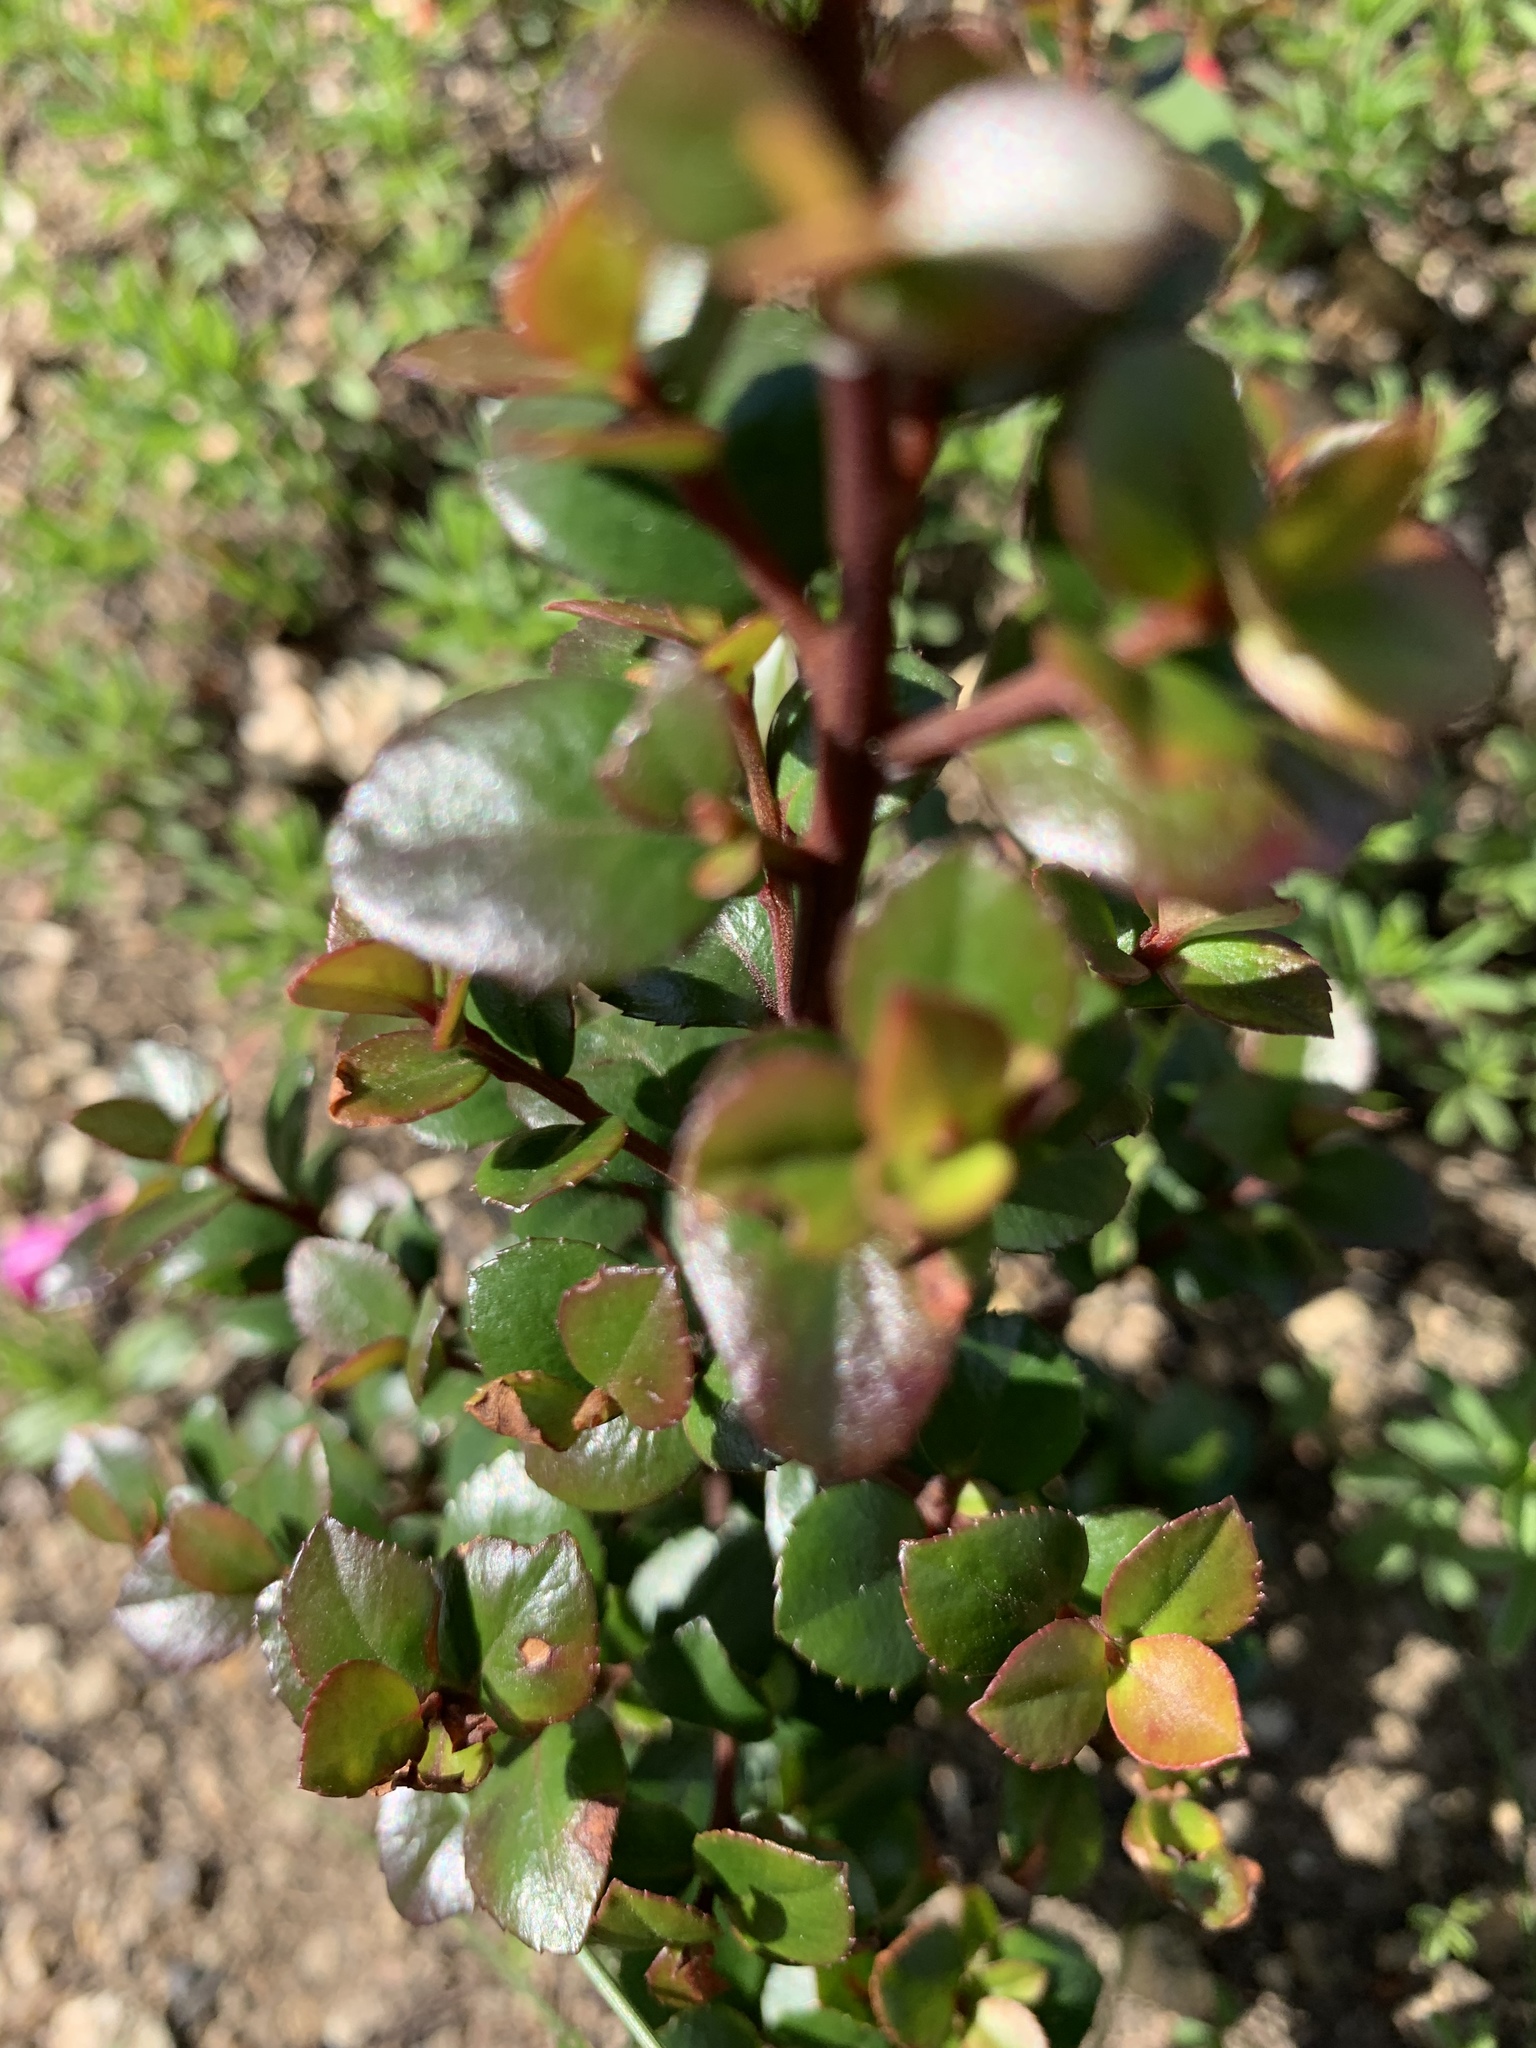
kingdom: Plantae
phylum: Tracheophyta
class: Magnoliopsida
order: Ericales
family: Primulaceae
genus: Myrsine
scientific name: Myrsine africana
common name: African-boxwood
